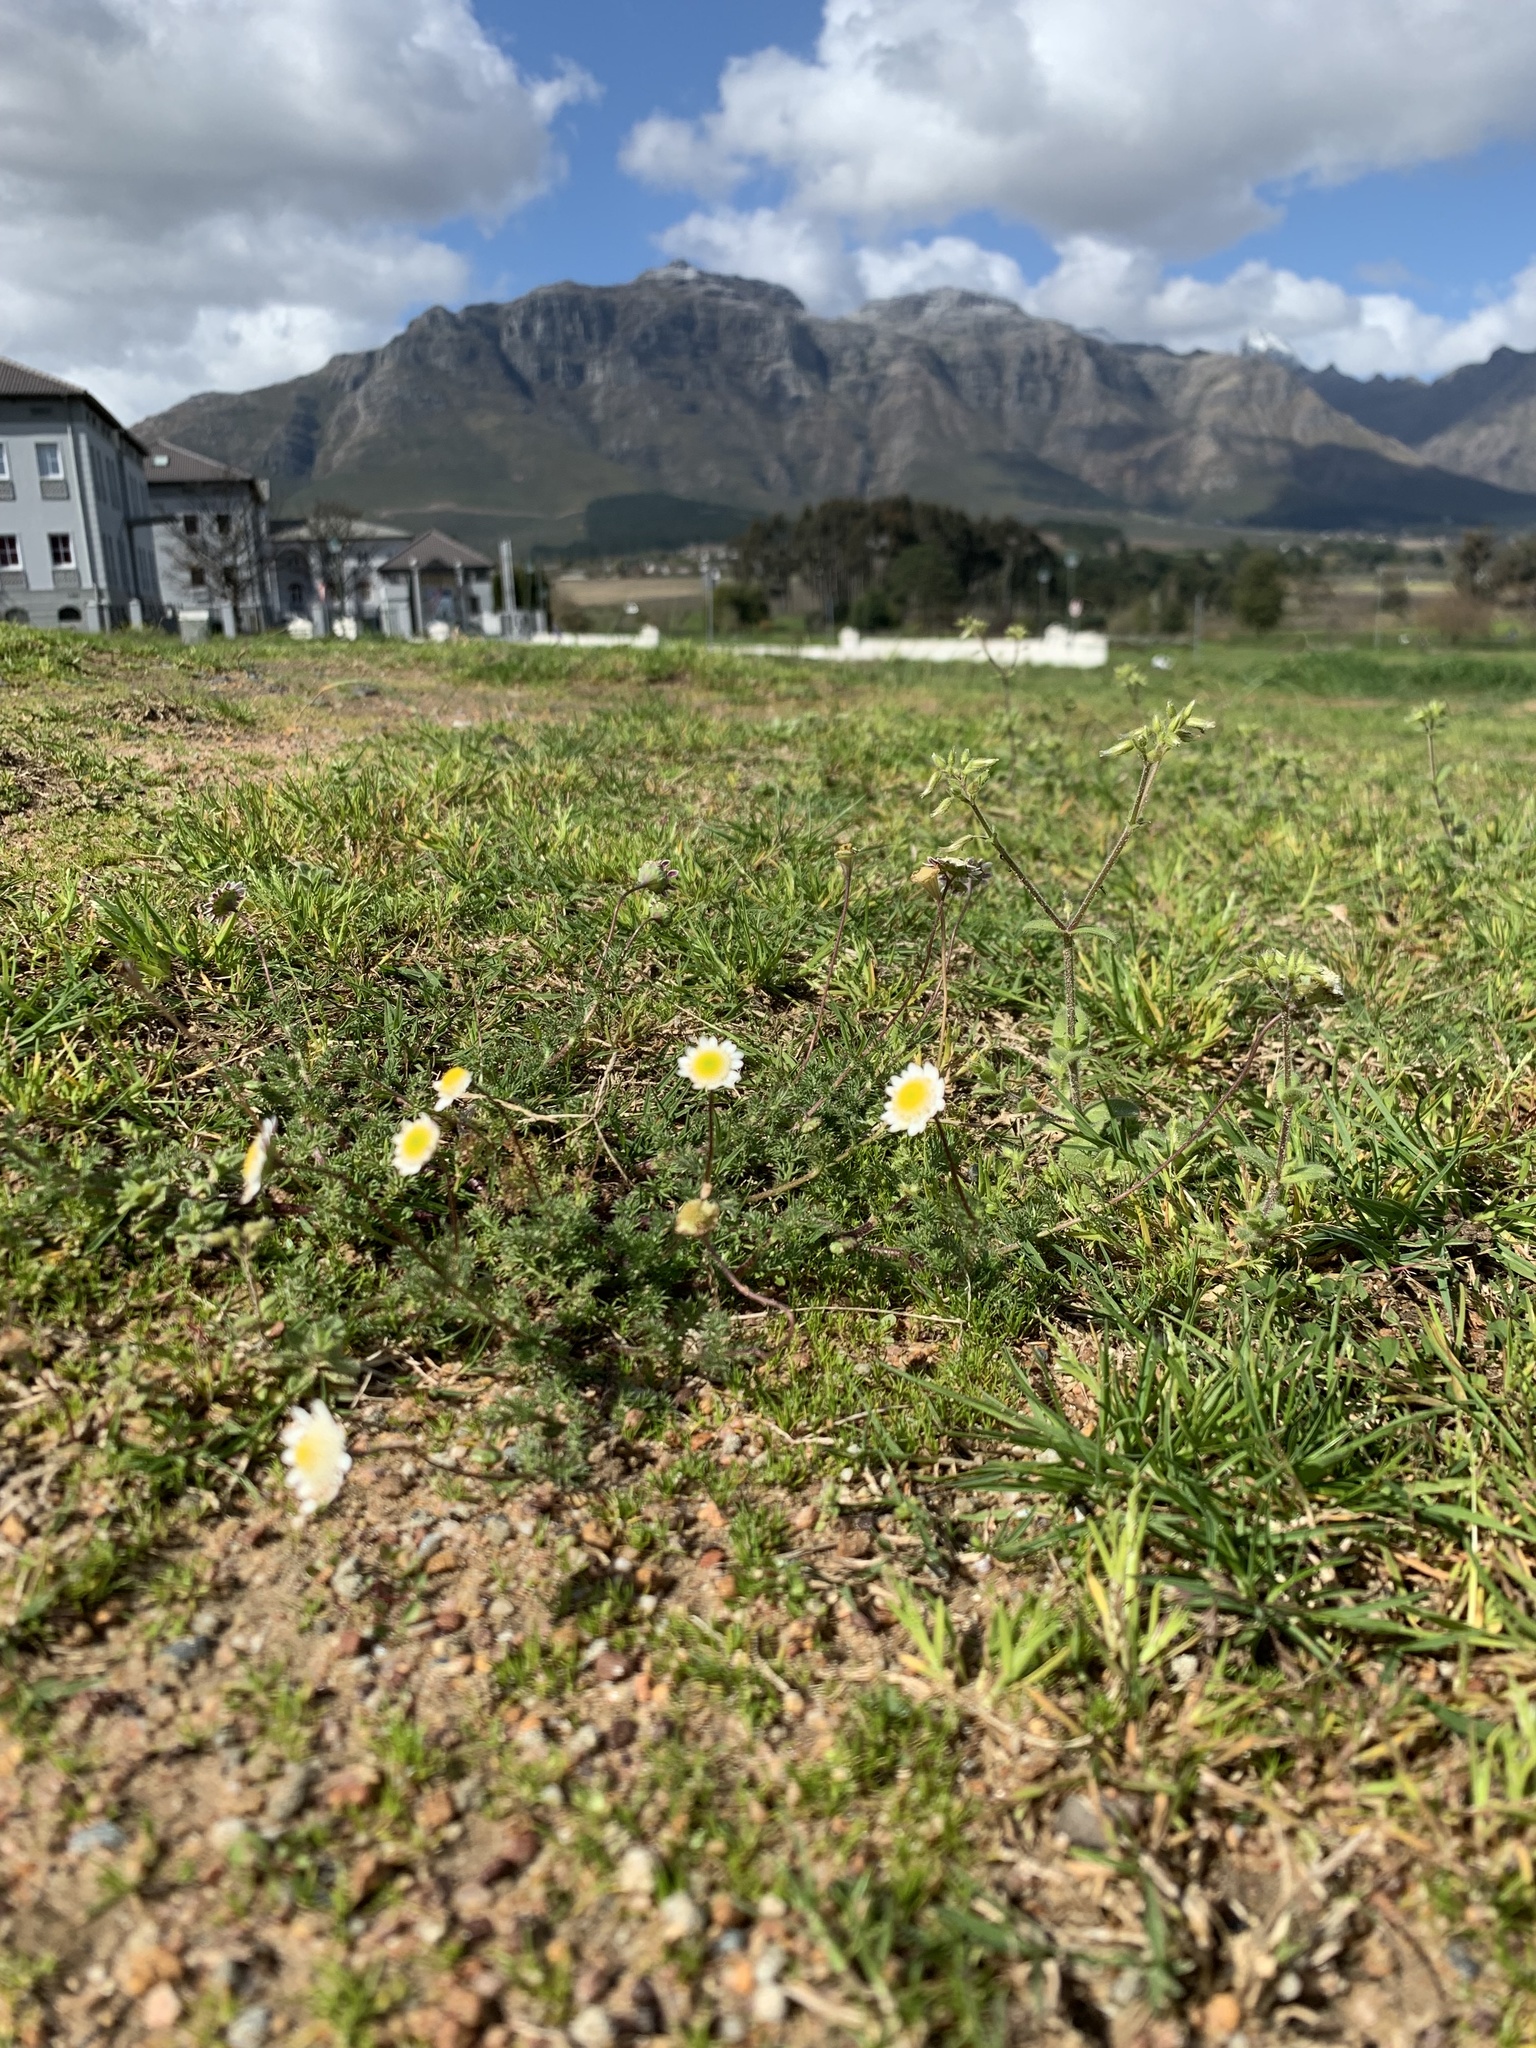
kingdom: Plantae
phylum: Tracheophyta
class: Magnoliopsida
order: Asterales
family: Asteraceae
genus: Cotula
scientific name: Cotula turbinata
